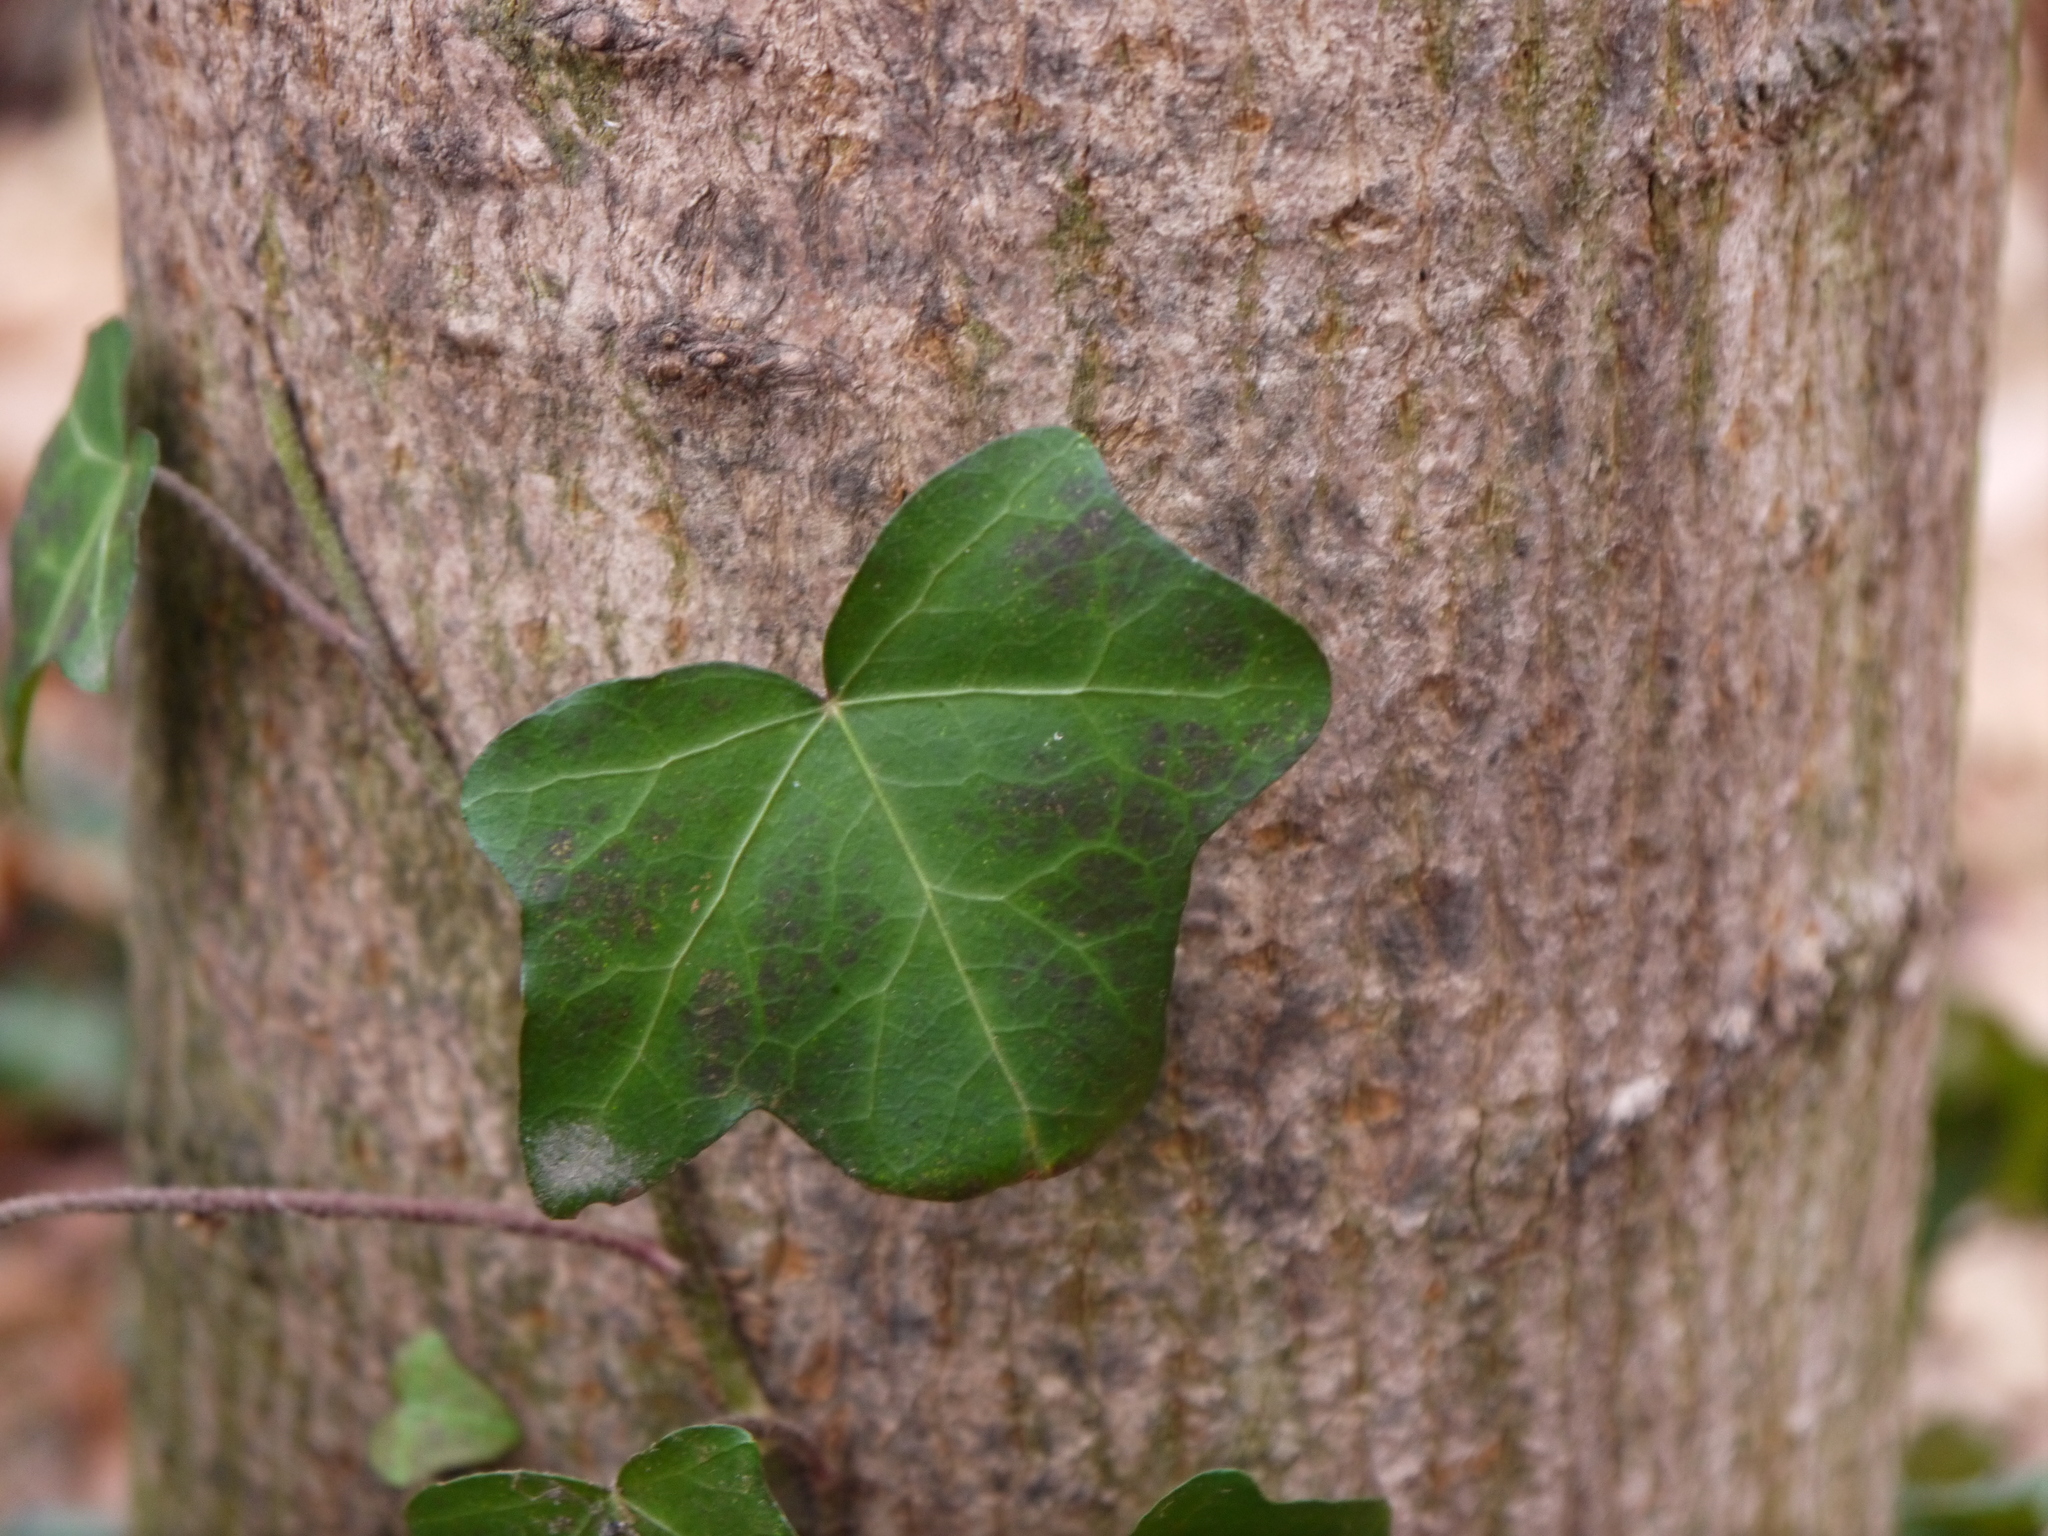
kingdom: Plantae
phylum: Tracheophyta
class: Magnoliopsida
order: Apiales
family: Araliaceae
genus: Hedera
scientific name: Hedera helix
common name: Ivy
